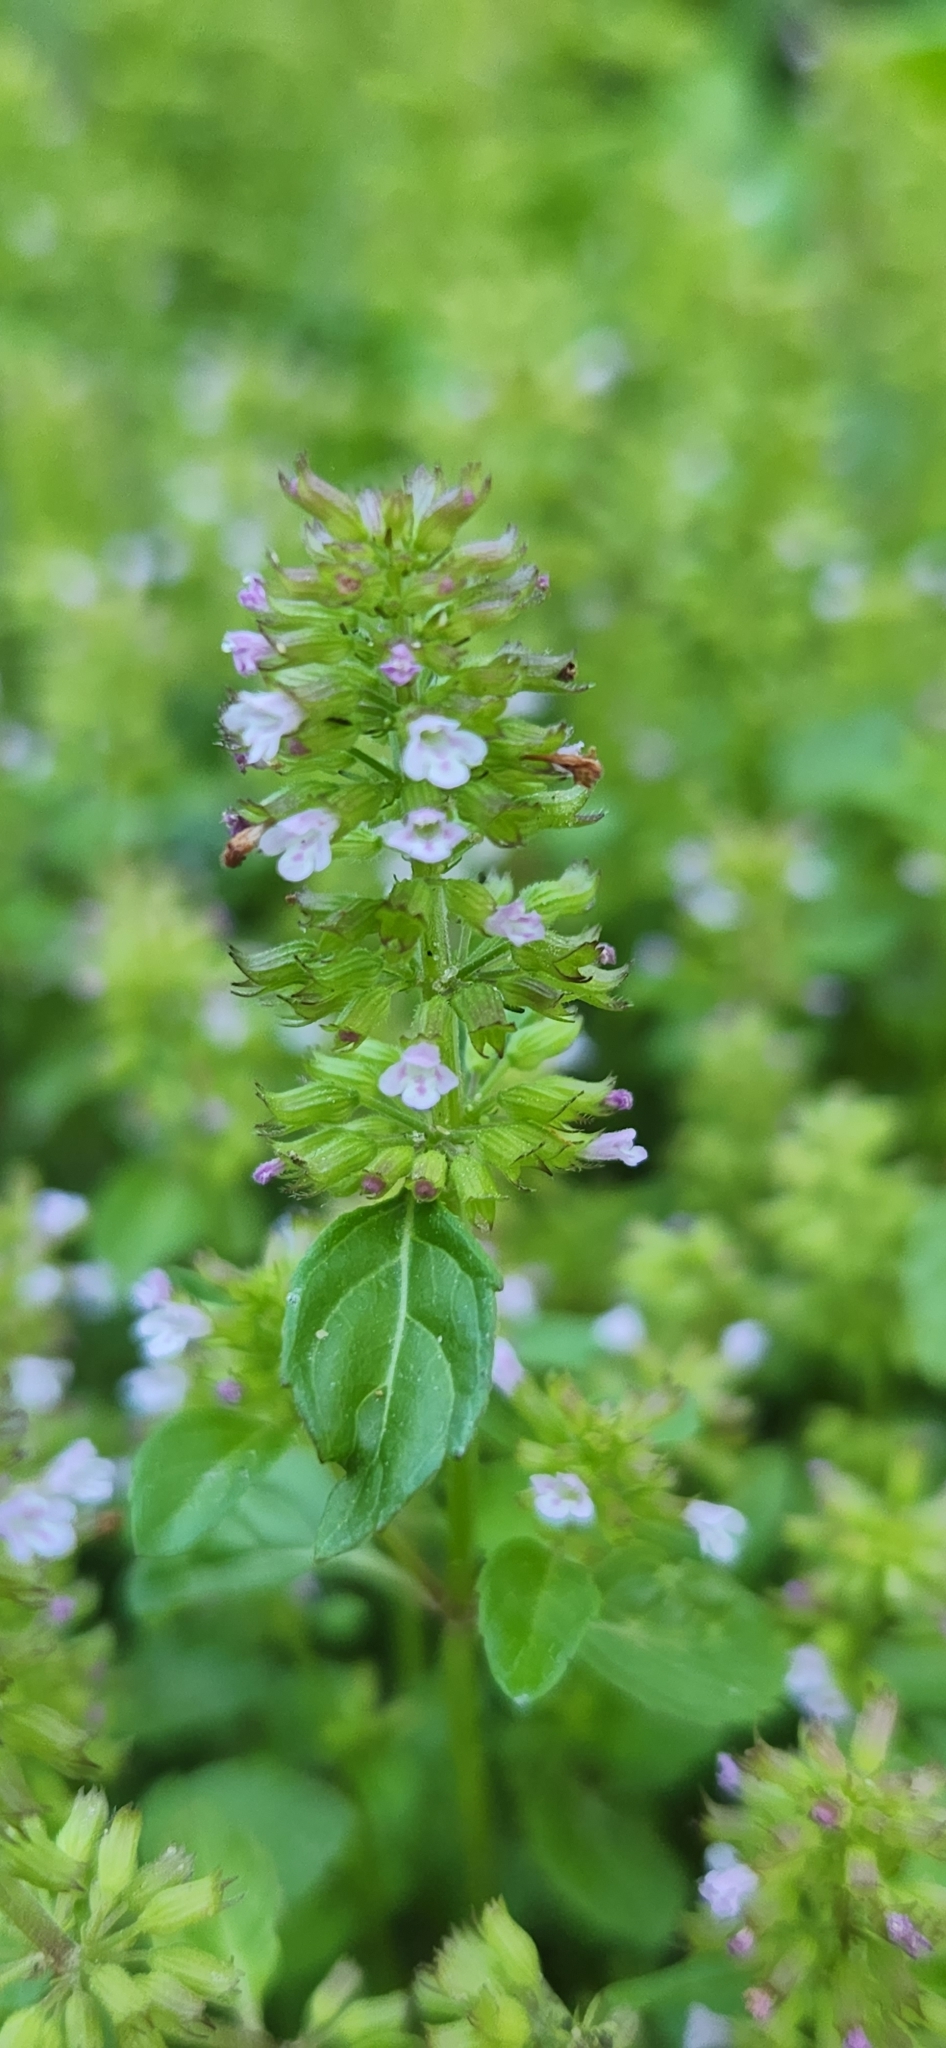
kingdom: Plantae
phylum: Tracheophyta
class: Magnoliopsida
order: Lamiales
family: Lamiaceae
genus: Clinopodium
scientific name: Clinopodium gracile
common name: Slender wild basil
